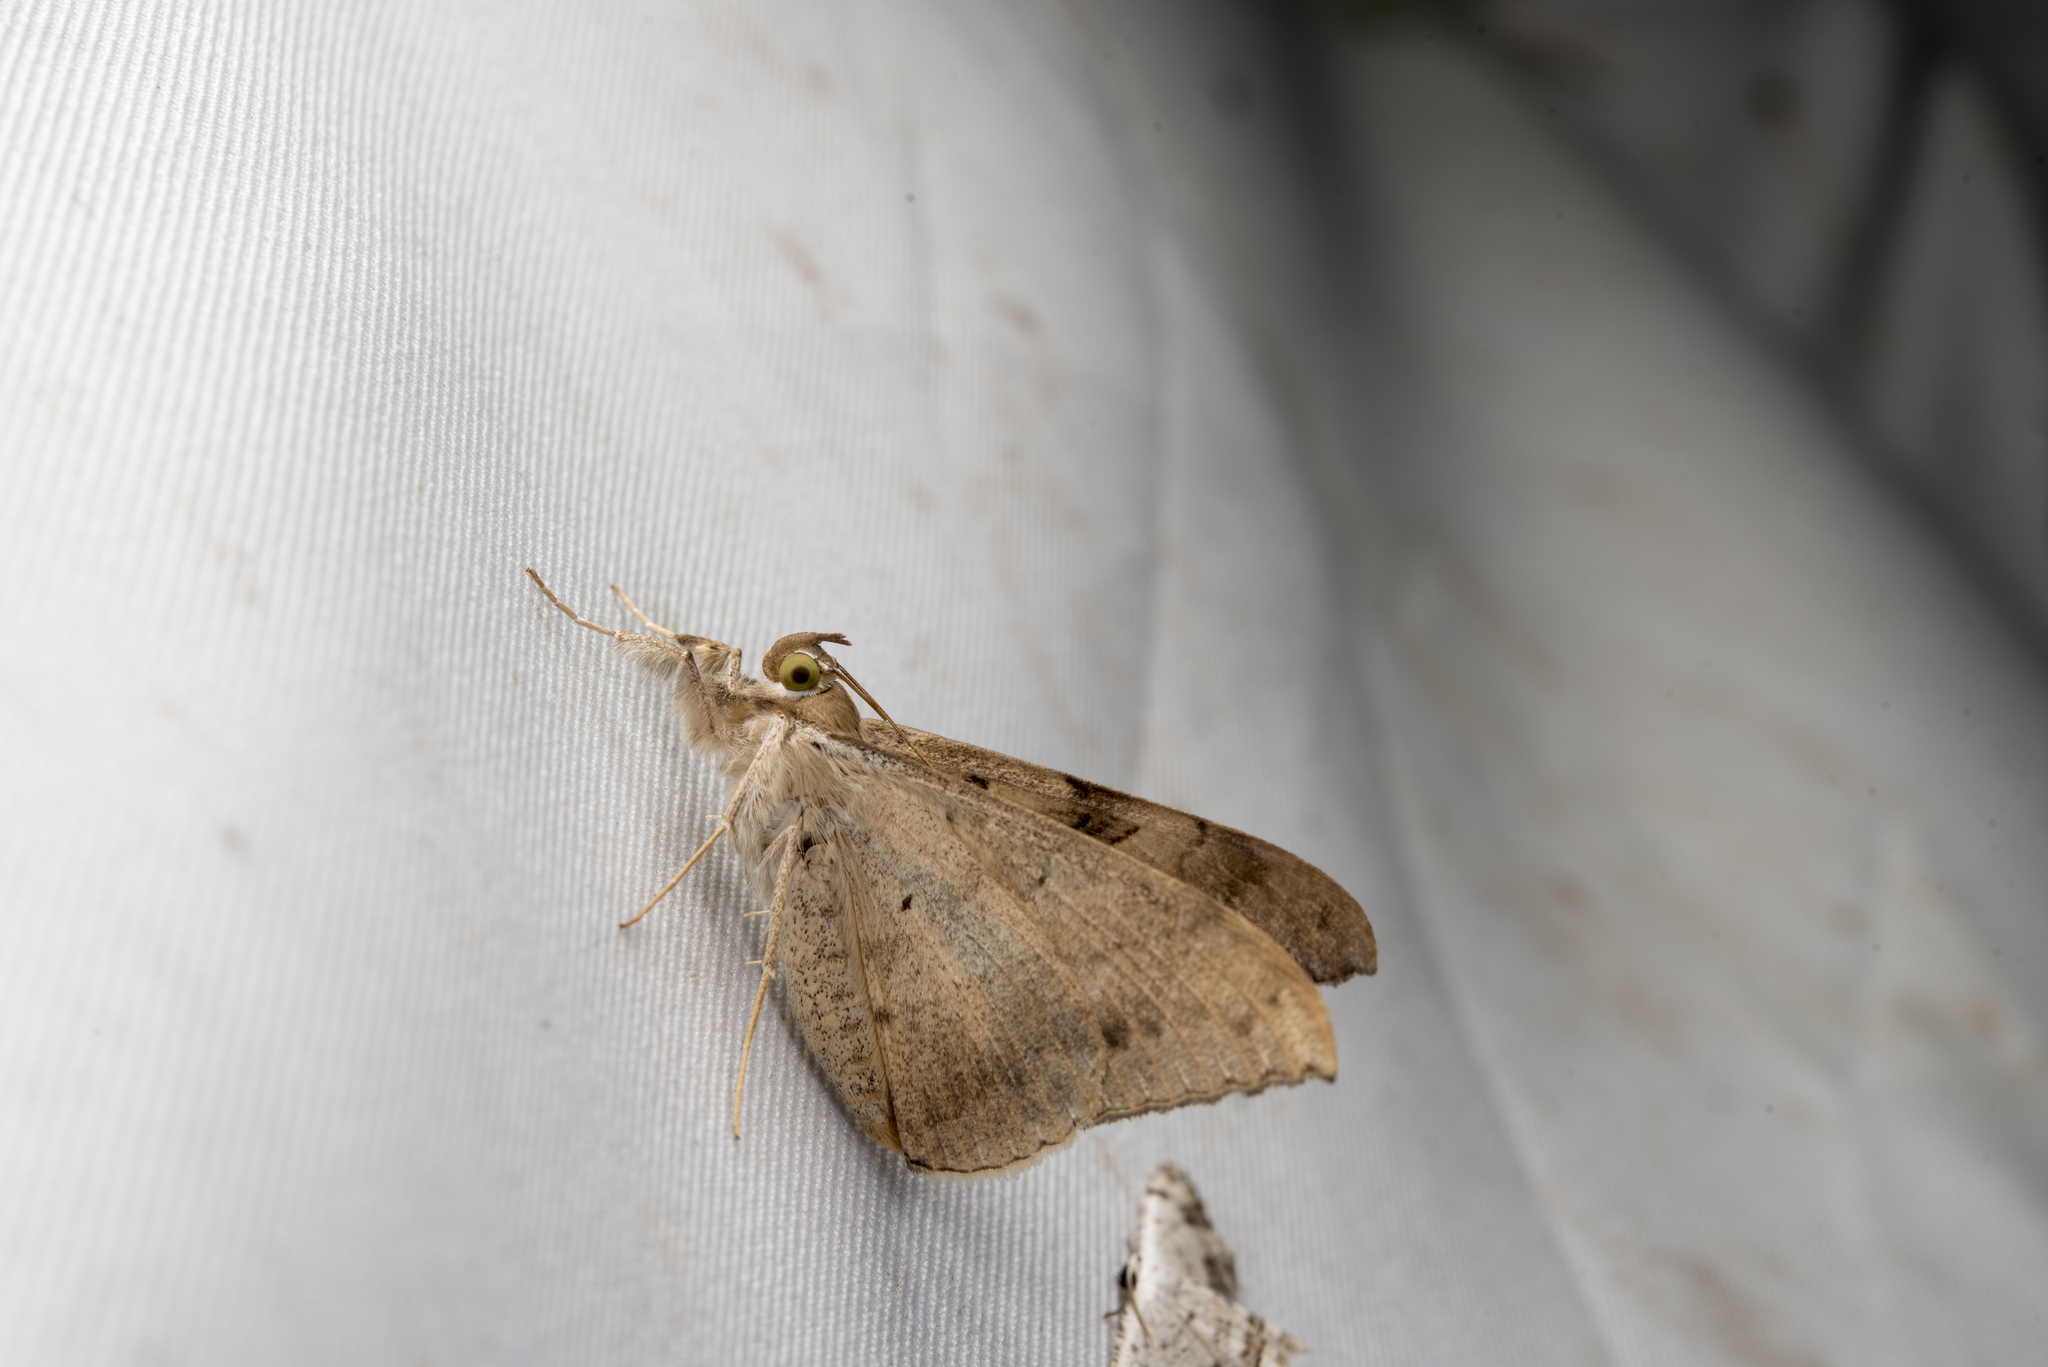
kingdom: Animalia
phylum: Arthropoda
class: Insecta
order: Lepidoptera
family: Erebidae
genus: Oxyodes
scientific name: Oxyodes scrobiculata
